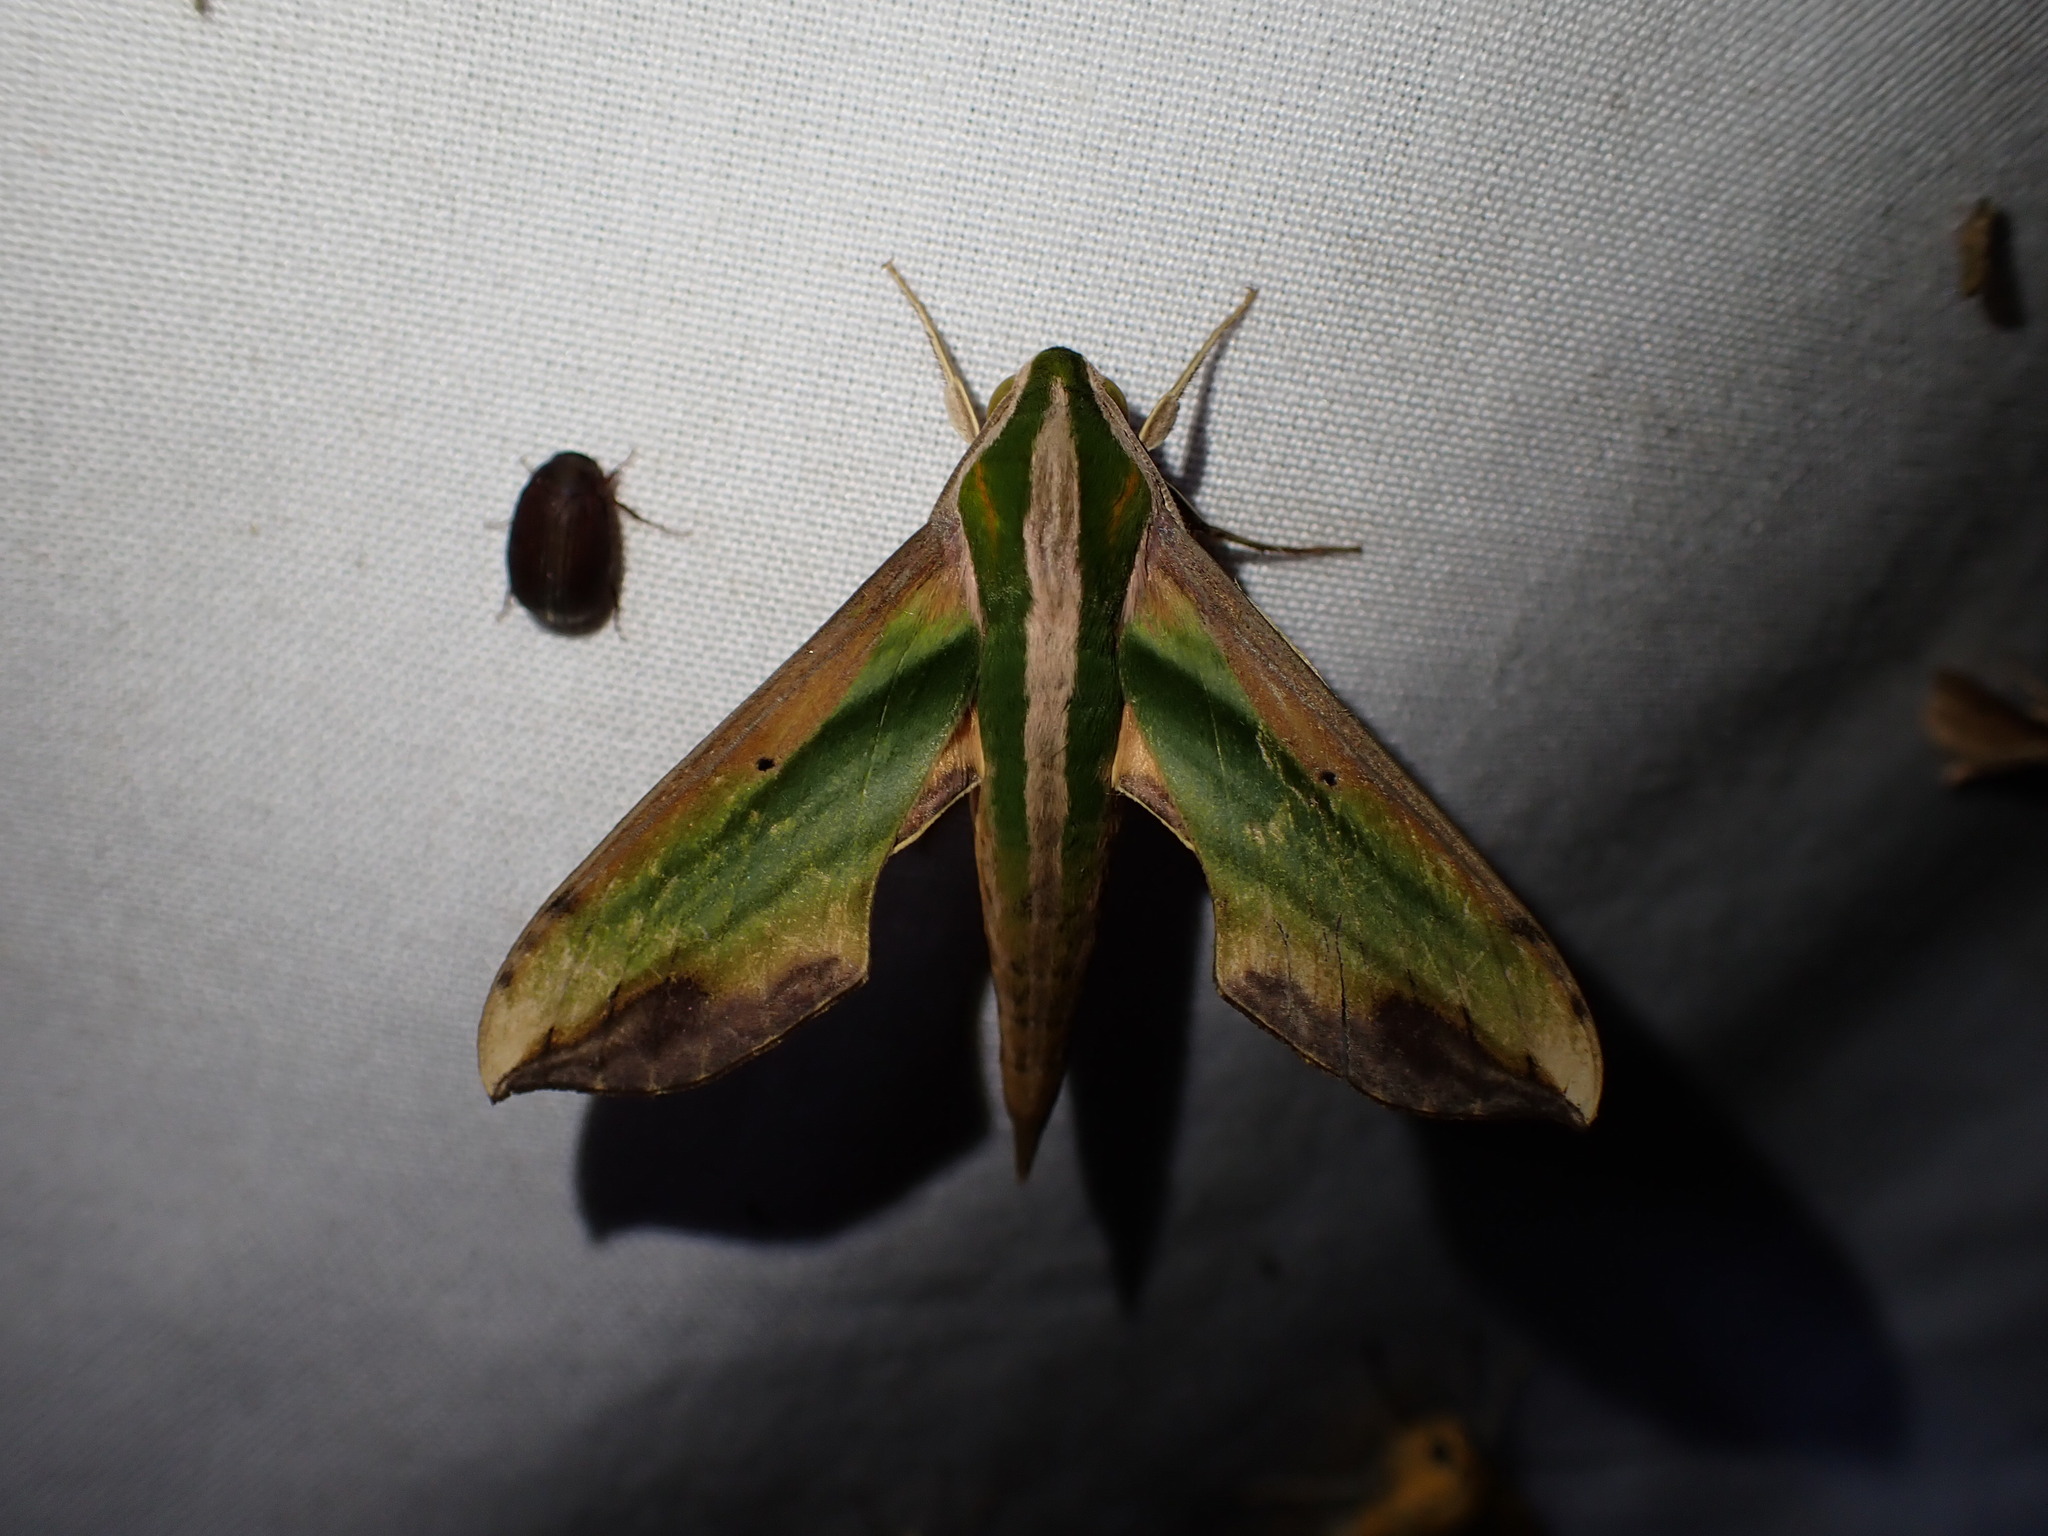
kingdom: Animalia
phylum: Arthropoda
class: Insecta
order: Lepidoptera
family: Sphingidae
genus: Pergesa
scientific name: Pergesa acteus
